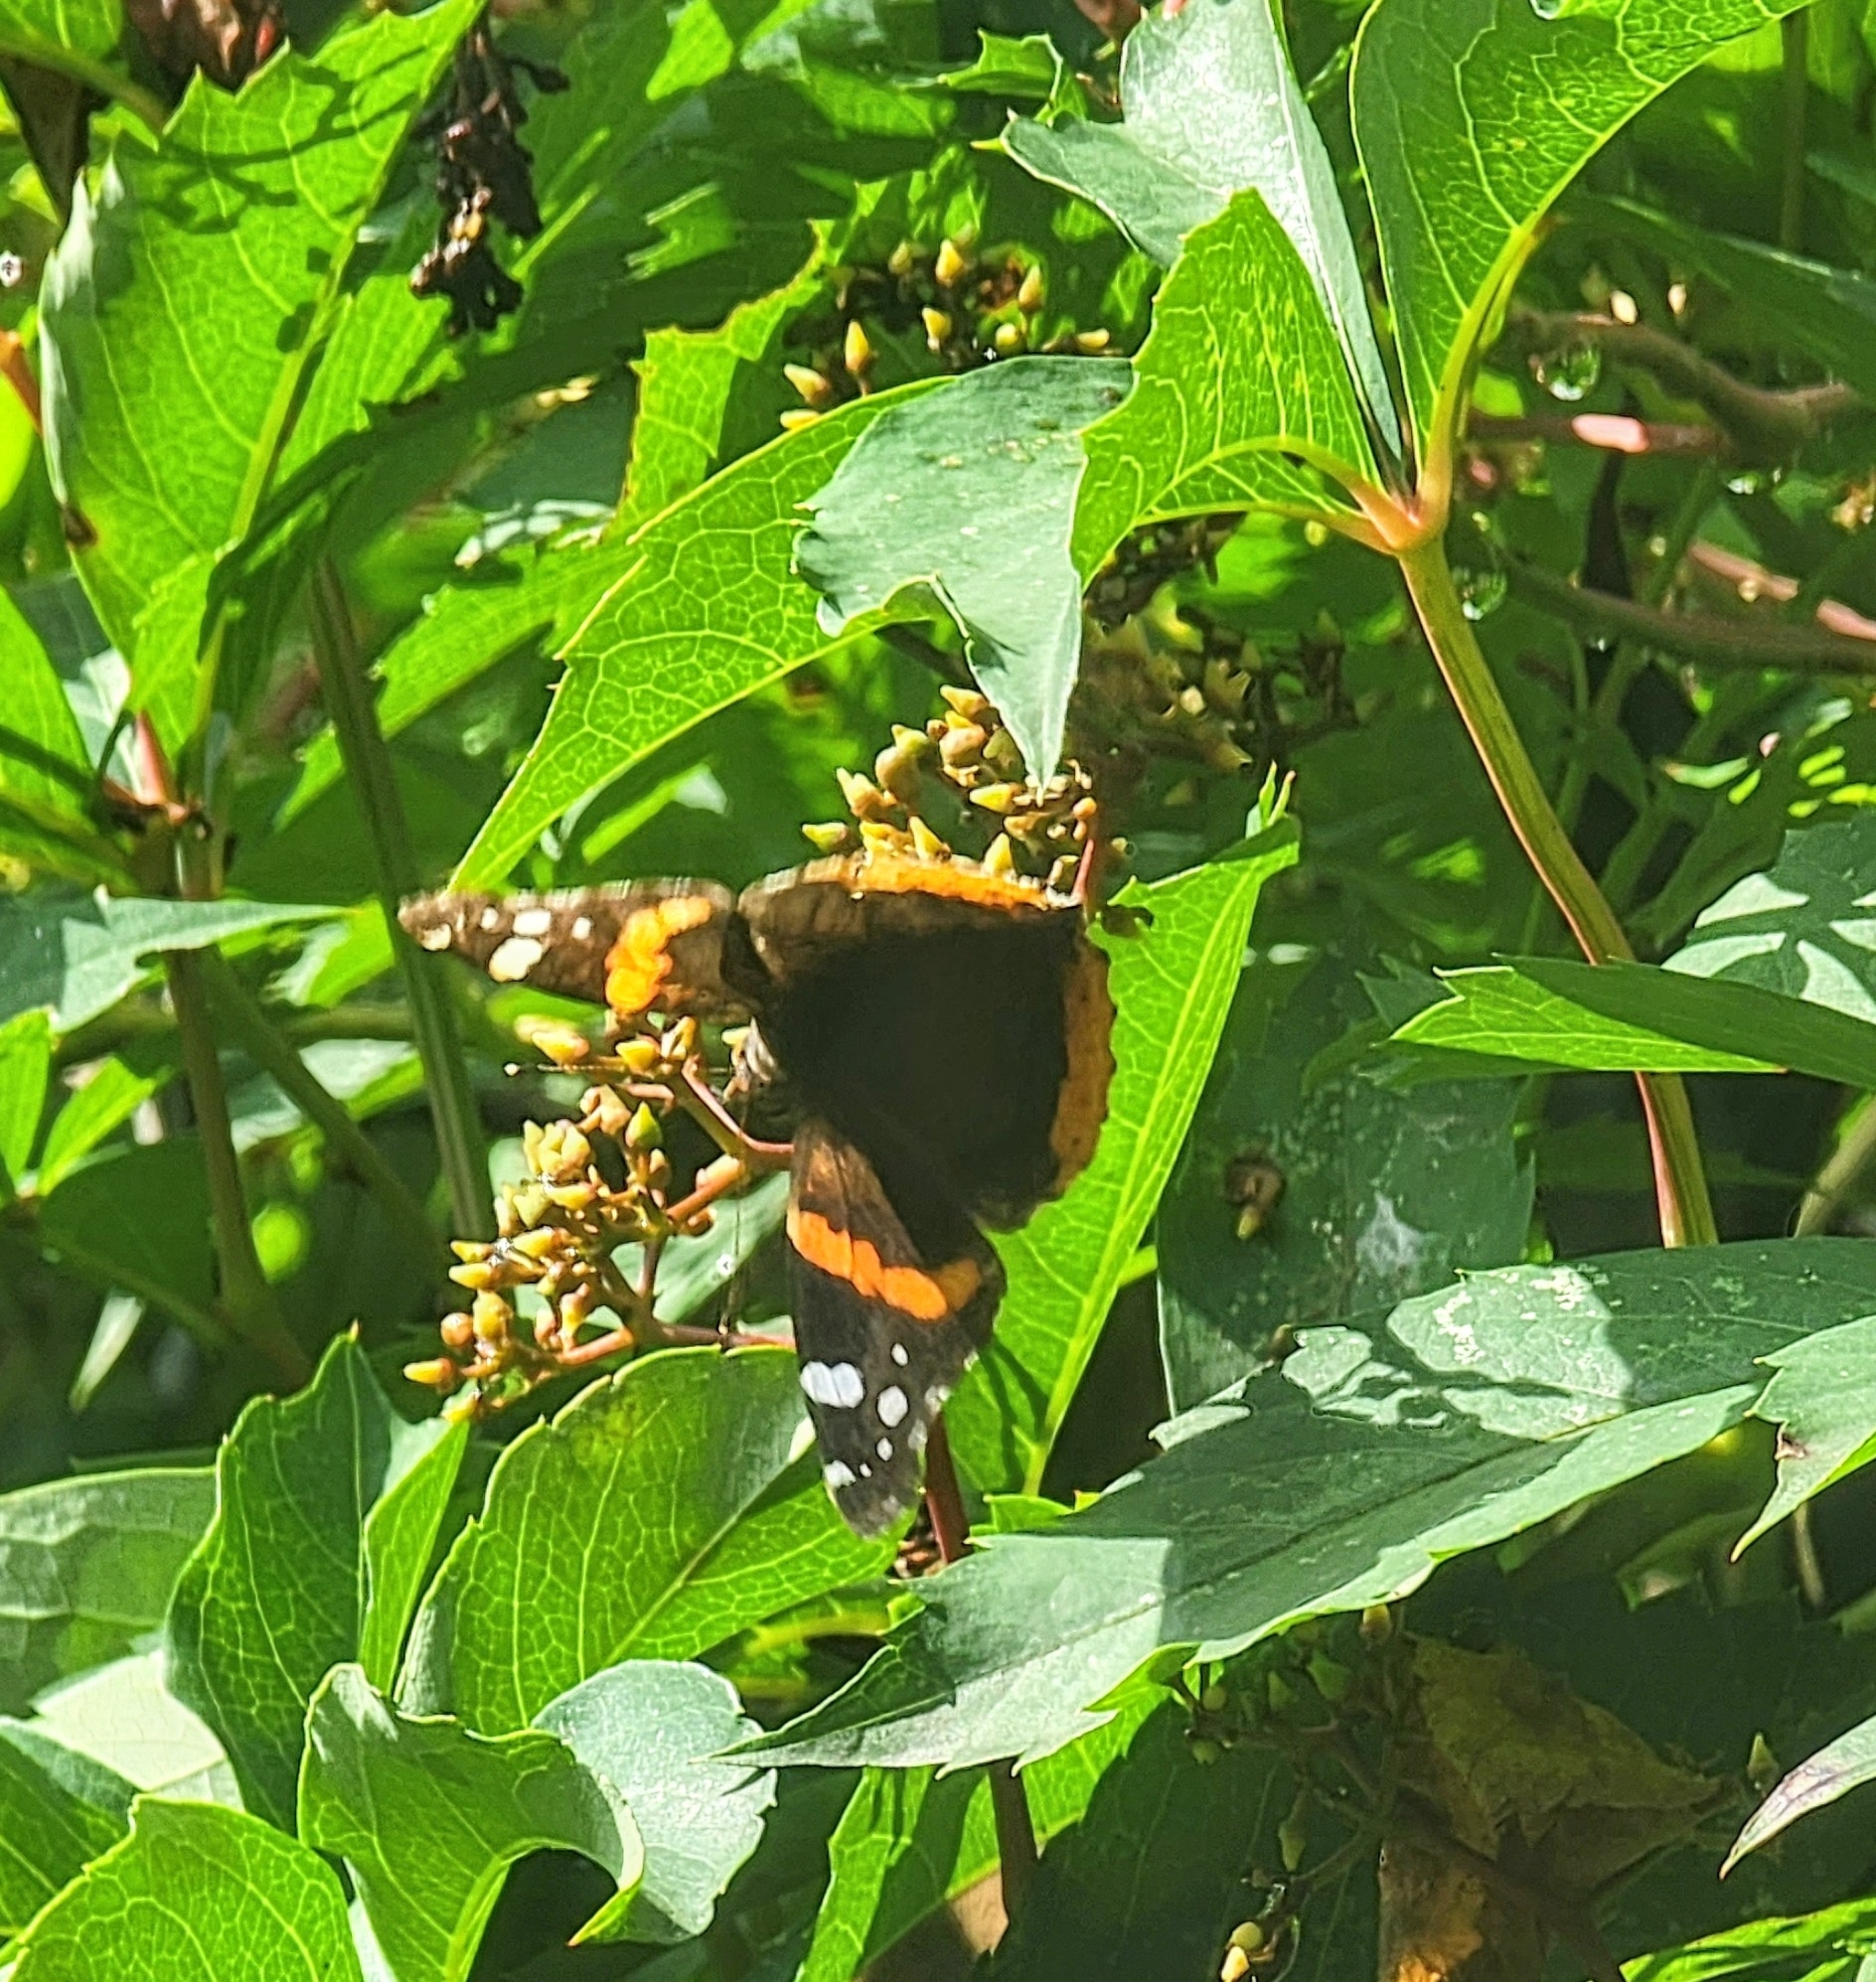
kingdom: Animalia
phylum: Arthropoda
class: Insecta
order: Lepidoptera
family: Nymphalidae
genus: Vanessa
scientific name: Vanessa atalanta
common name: Red admiral
